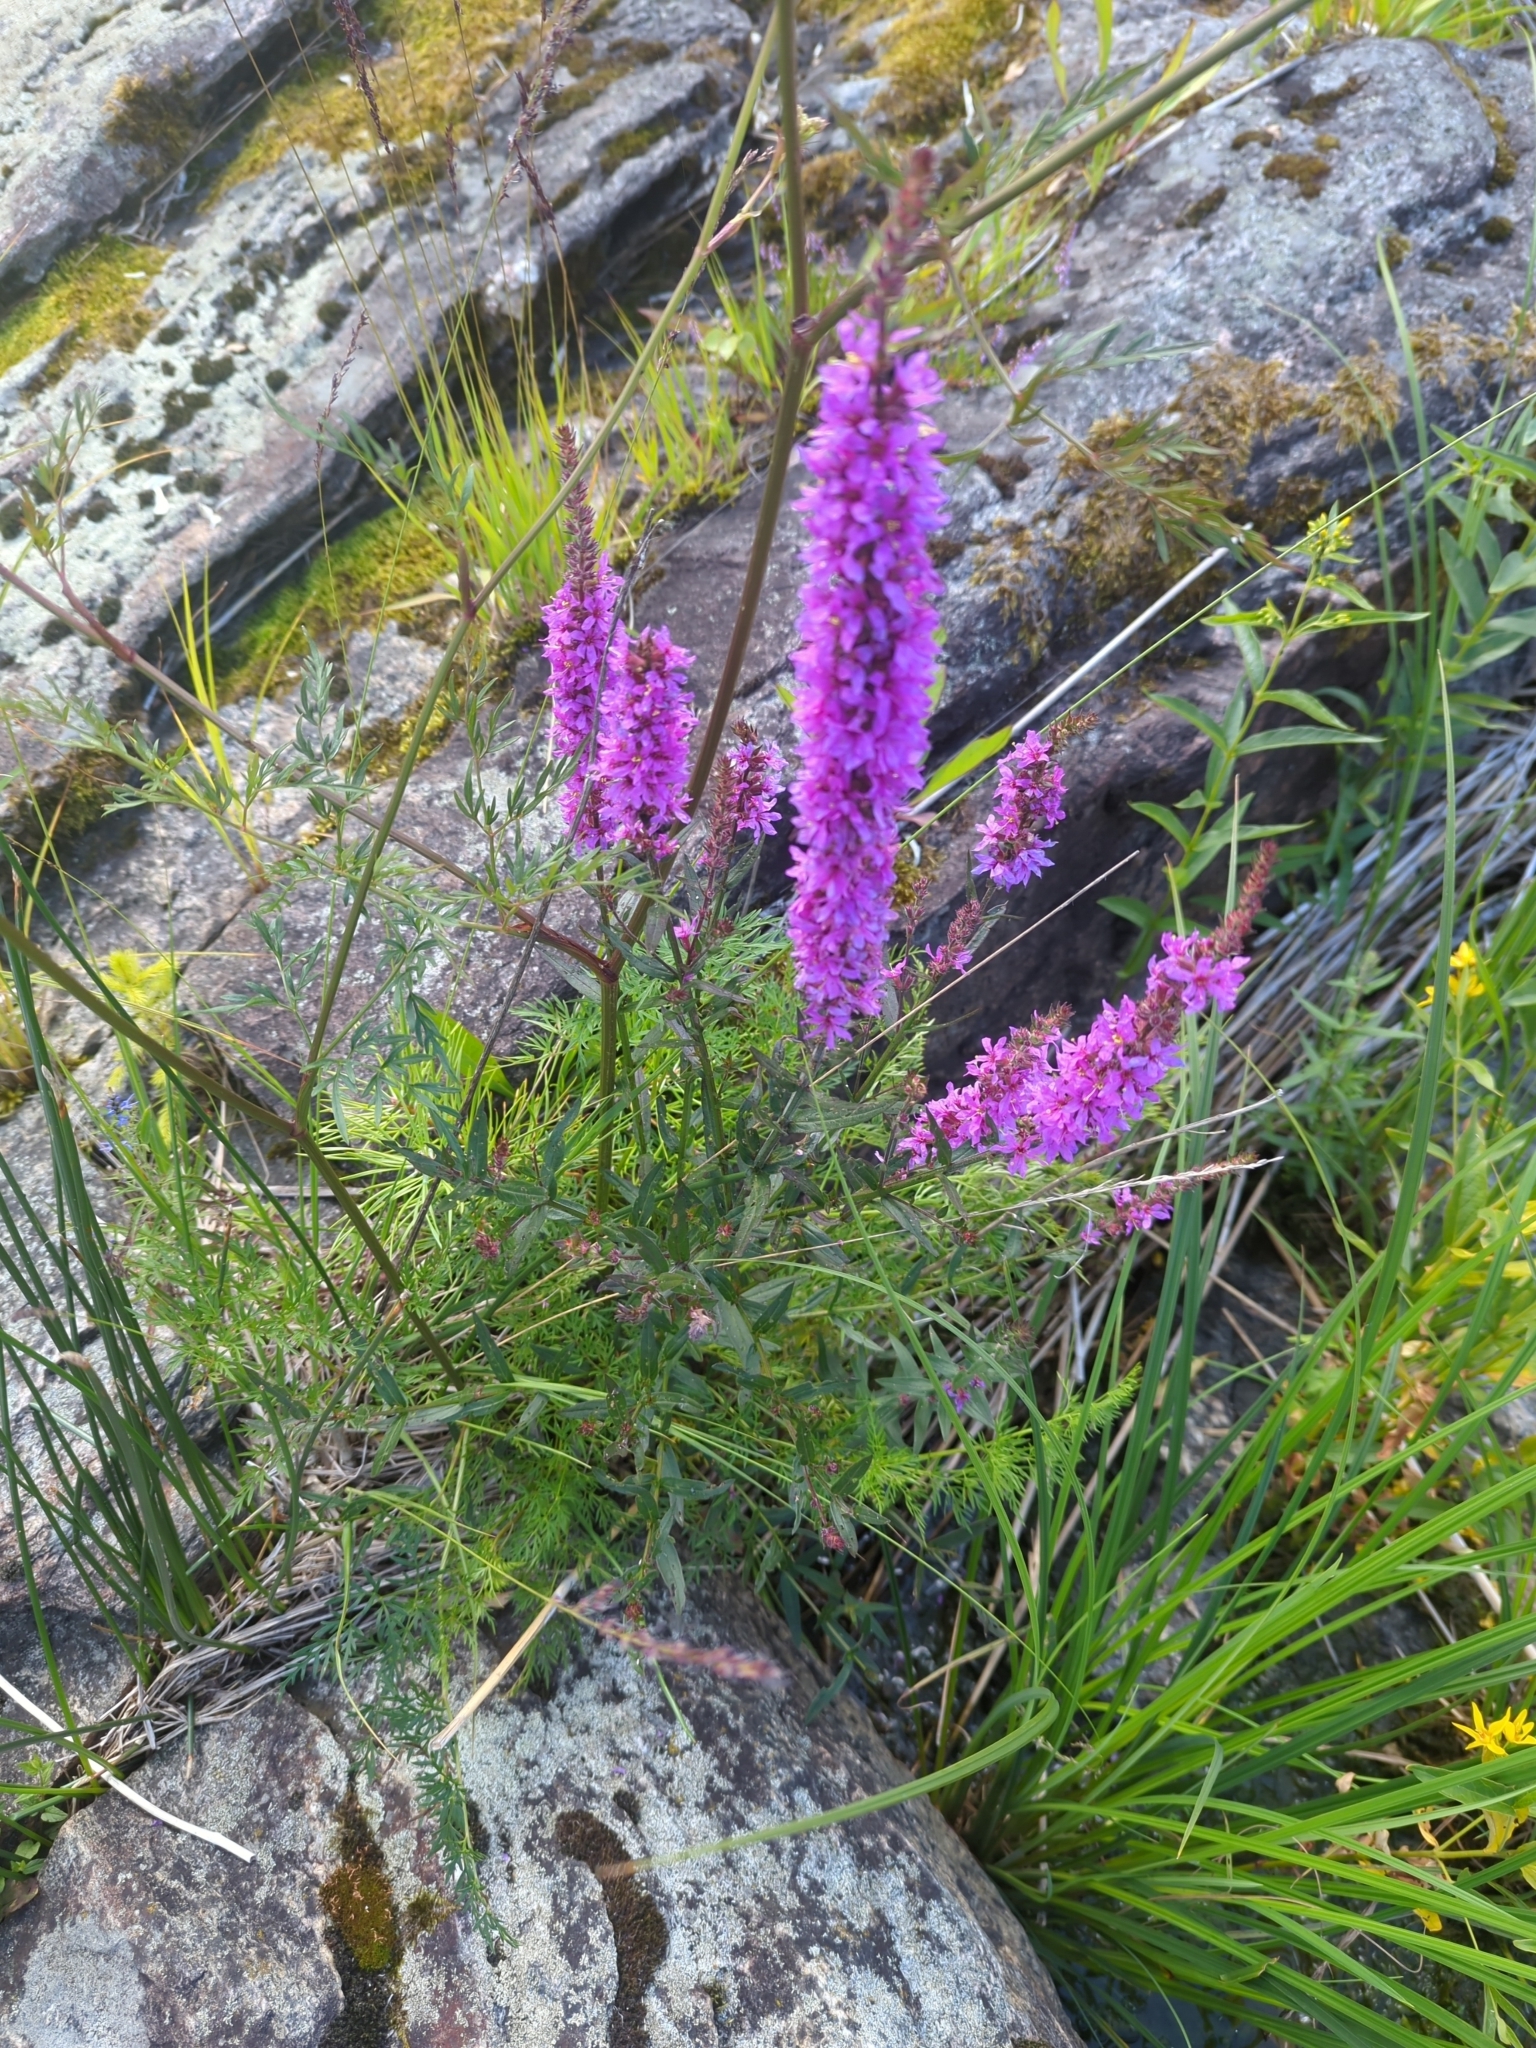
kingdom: Plantae
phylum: Tracheophyta
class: Magnoliopsida
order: Myrtales
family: Lythraceae
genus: Lythrum
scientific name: Lythrum salicaria
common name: Purple loosestrife
